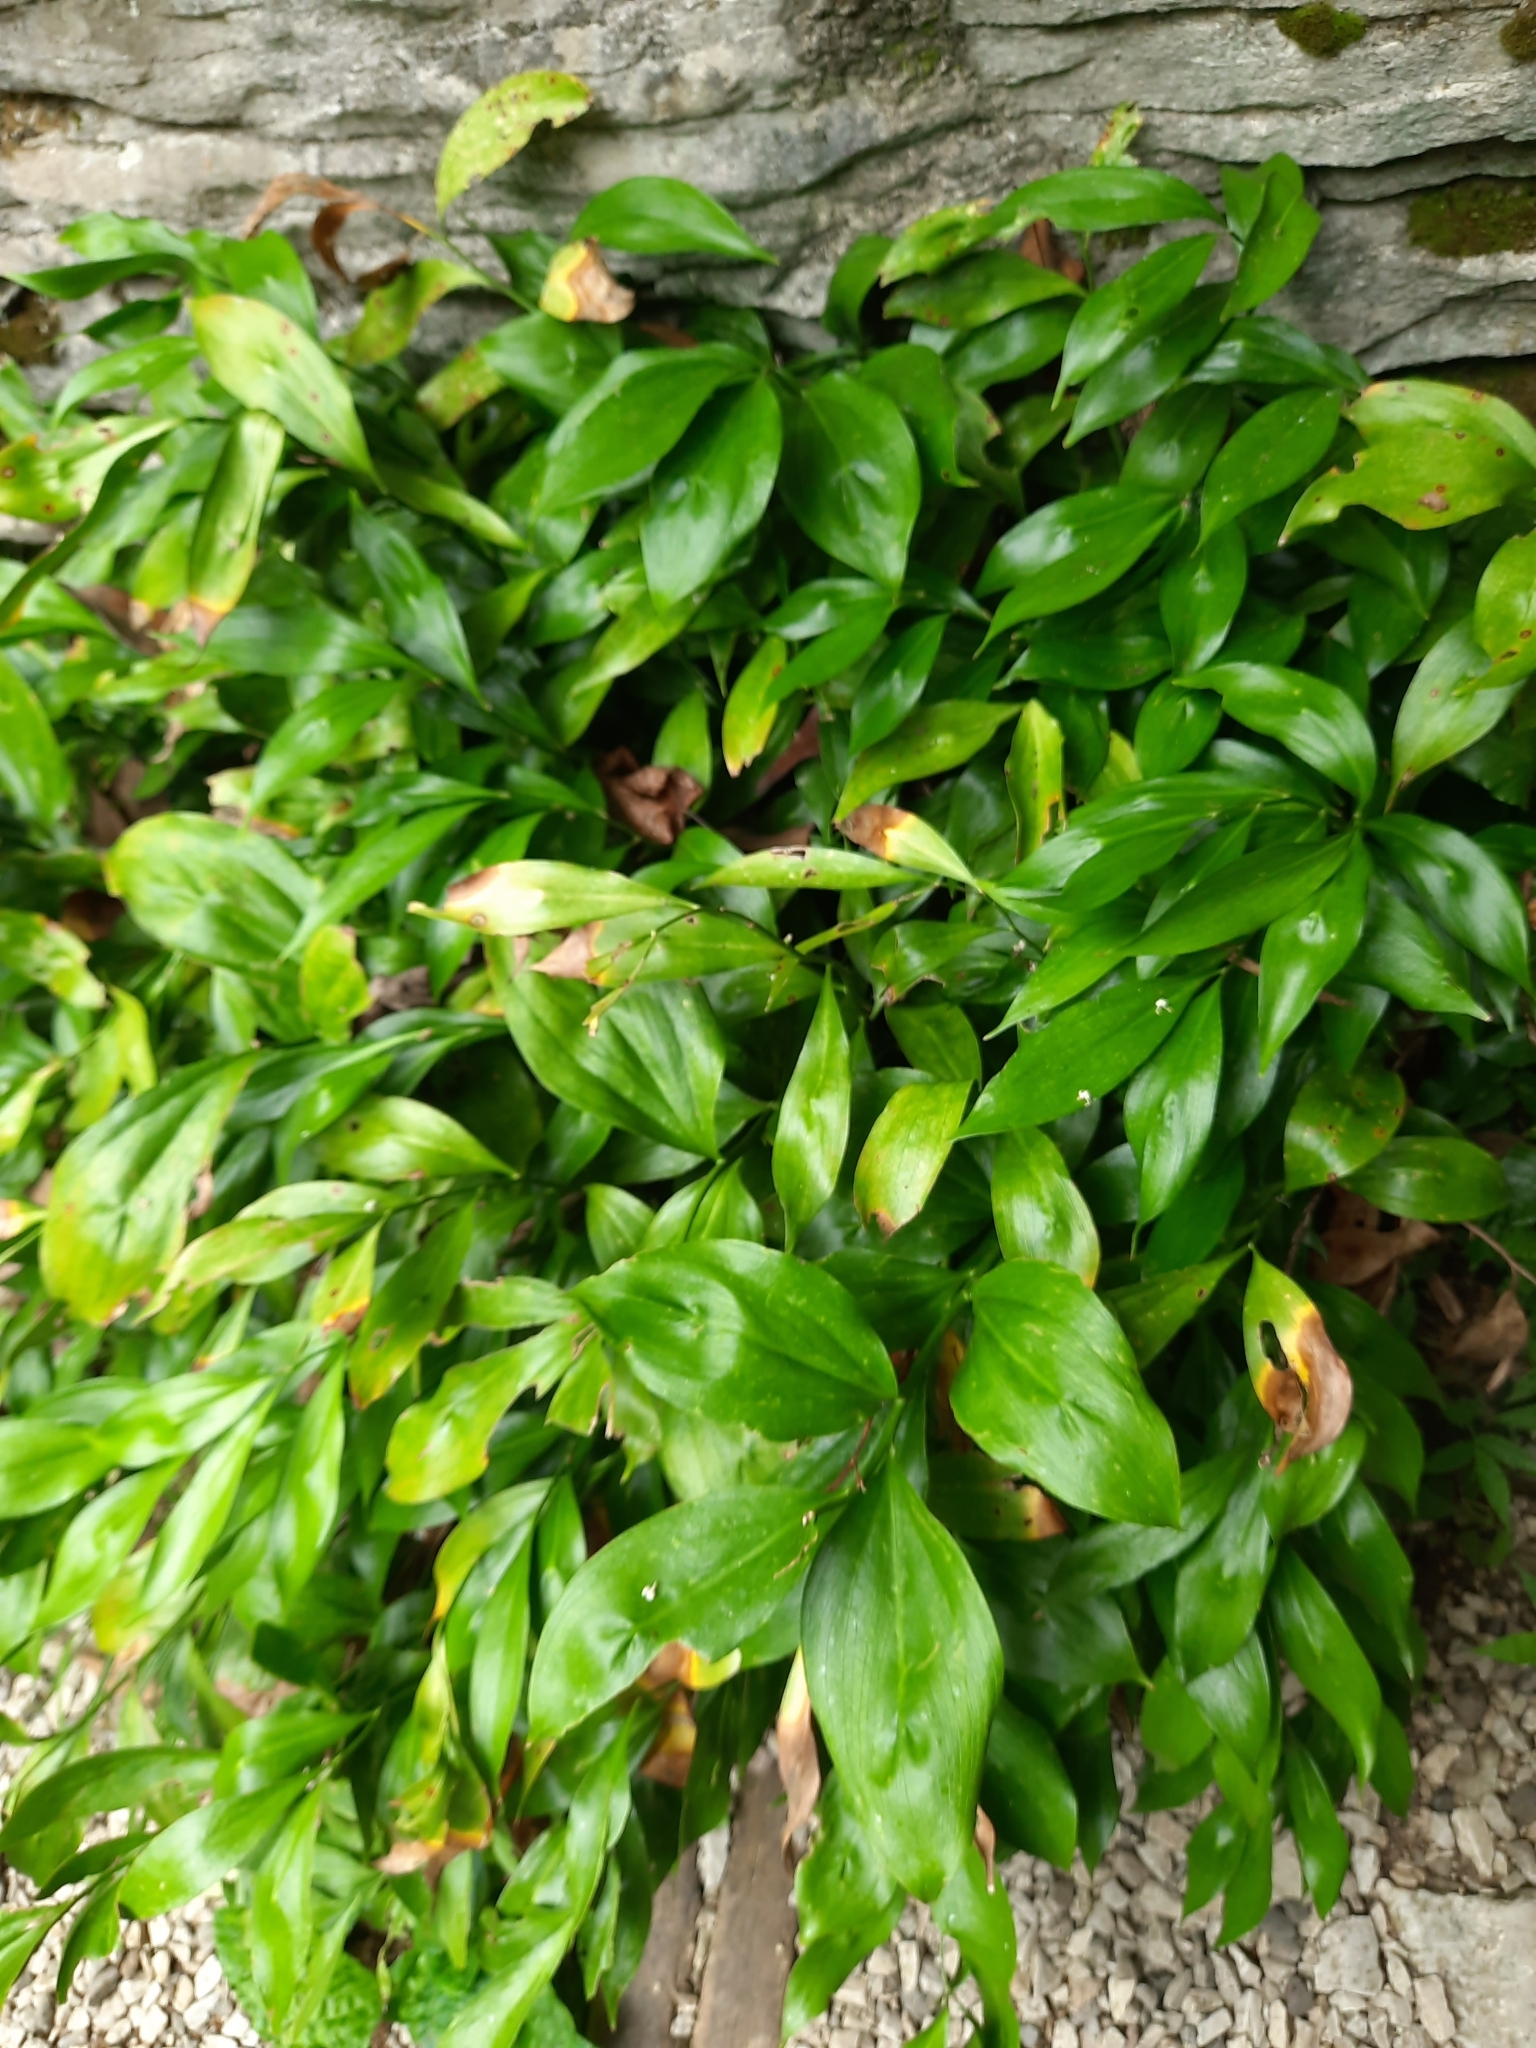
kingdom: Plantae
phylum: Tracheophyta
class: Liliopsida
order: Asparagales
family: Asparagaceae
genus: Ruscus
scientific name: Ruscus colchicus
